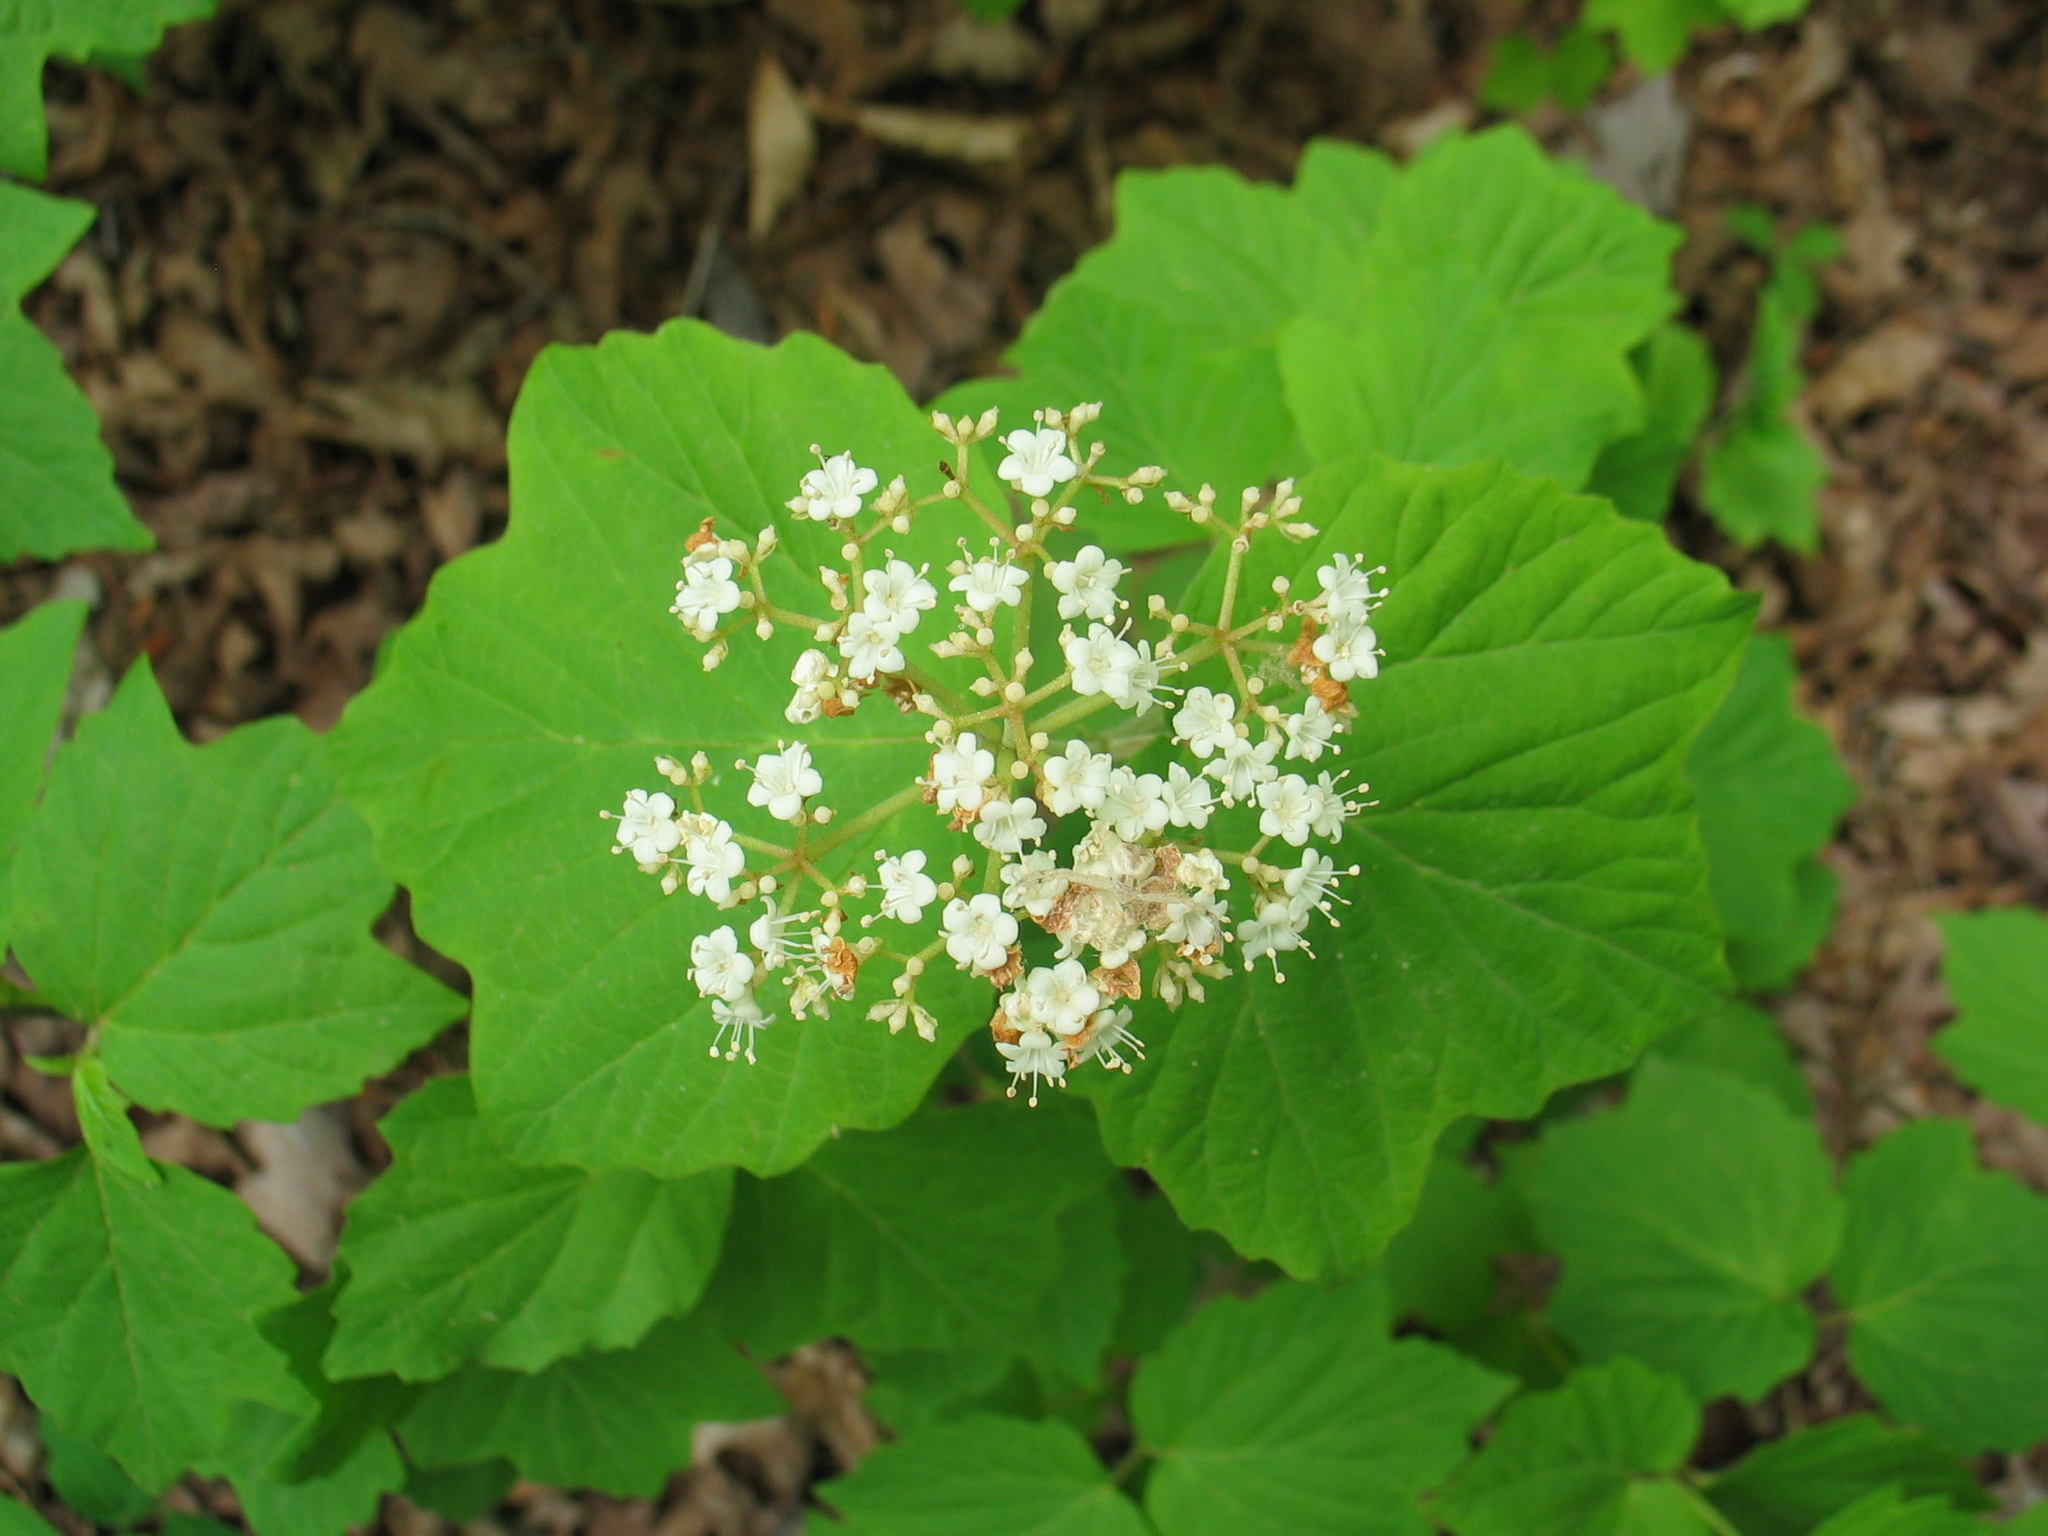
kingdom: Plantae
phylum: Tracheophyta
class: Magnoliopsida
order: Dipsacales
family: Viburnaceae
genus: Viburnum
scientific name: Viburnum acerifolium
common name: Dockmackie
